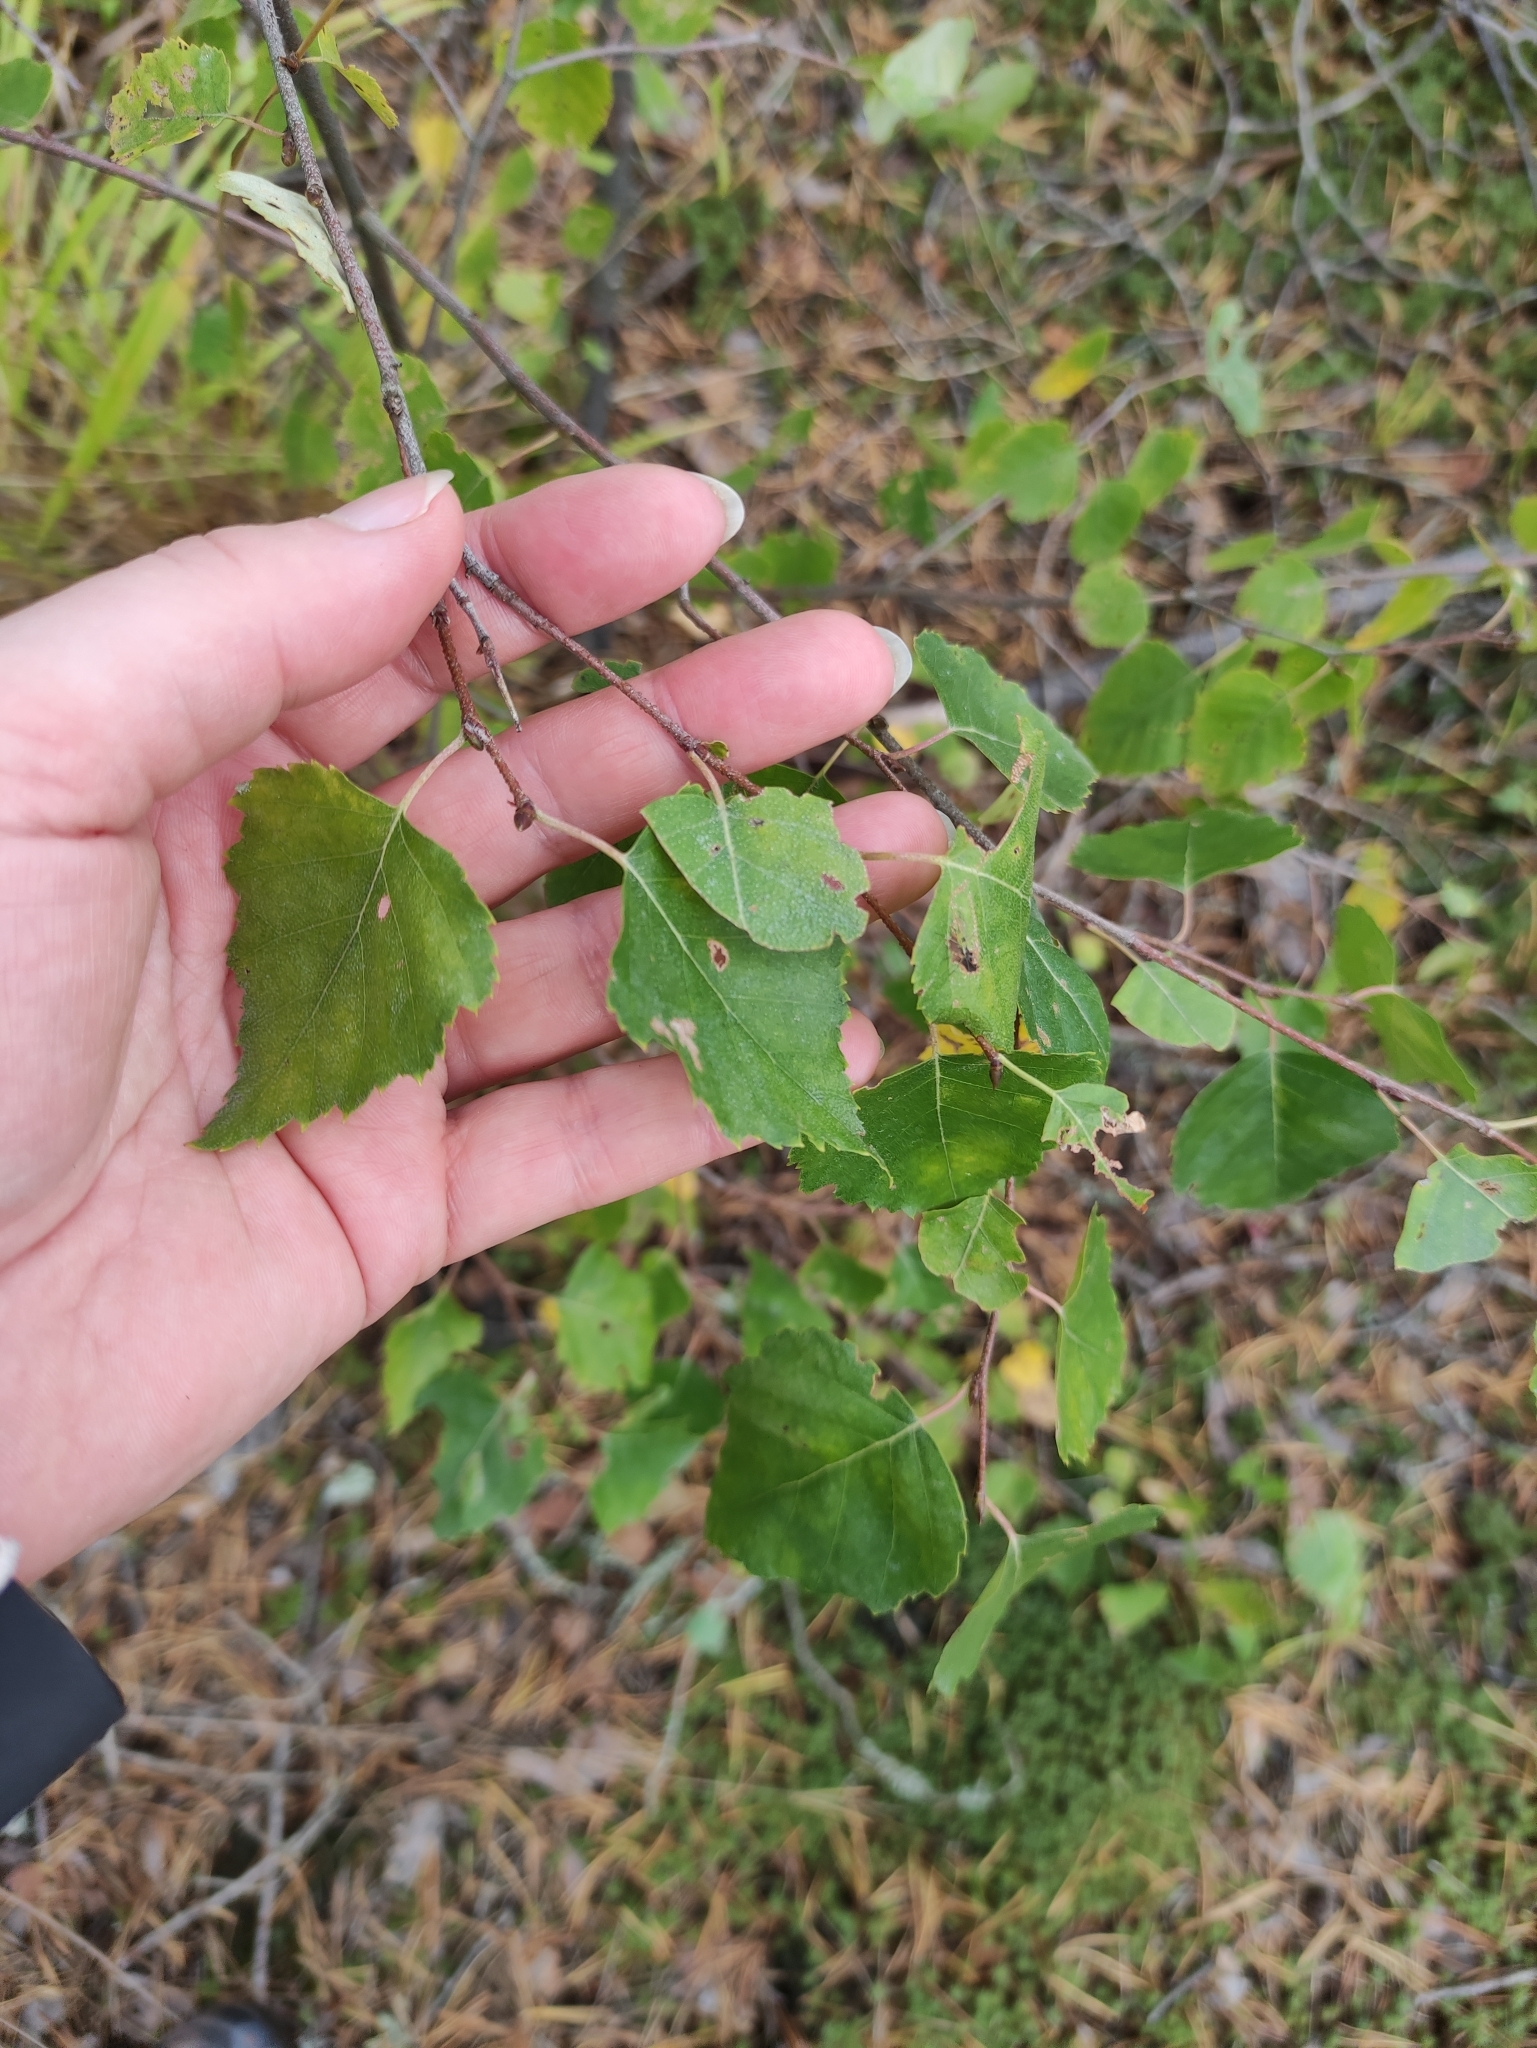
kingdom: Plantae
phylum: Tracheophyta
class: Magnoliopsida
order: Fagales
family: Betulaceae
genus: Betula
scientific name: Betula pendula
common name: Silver birch
